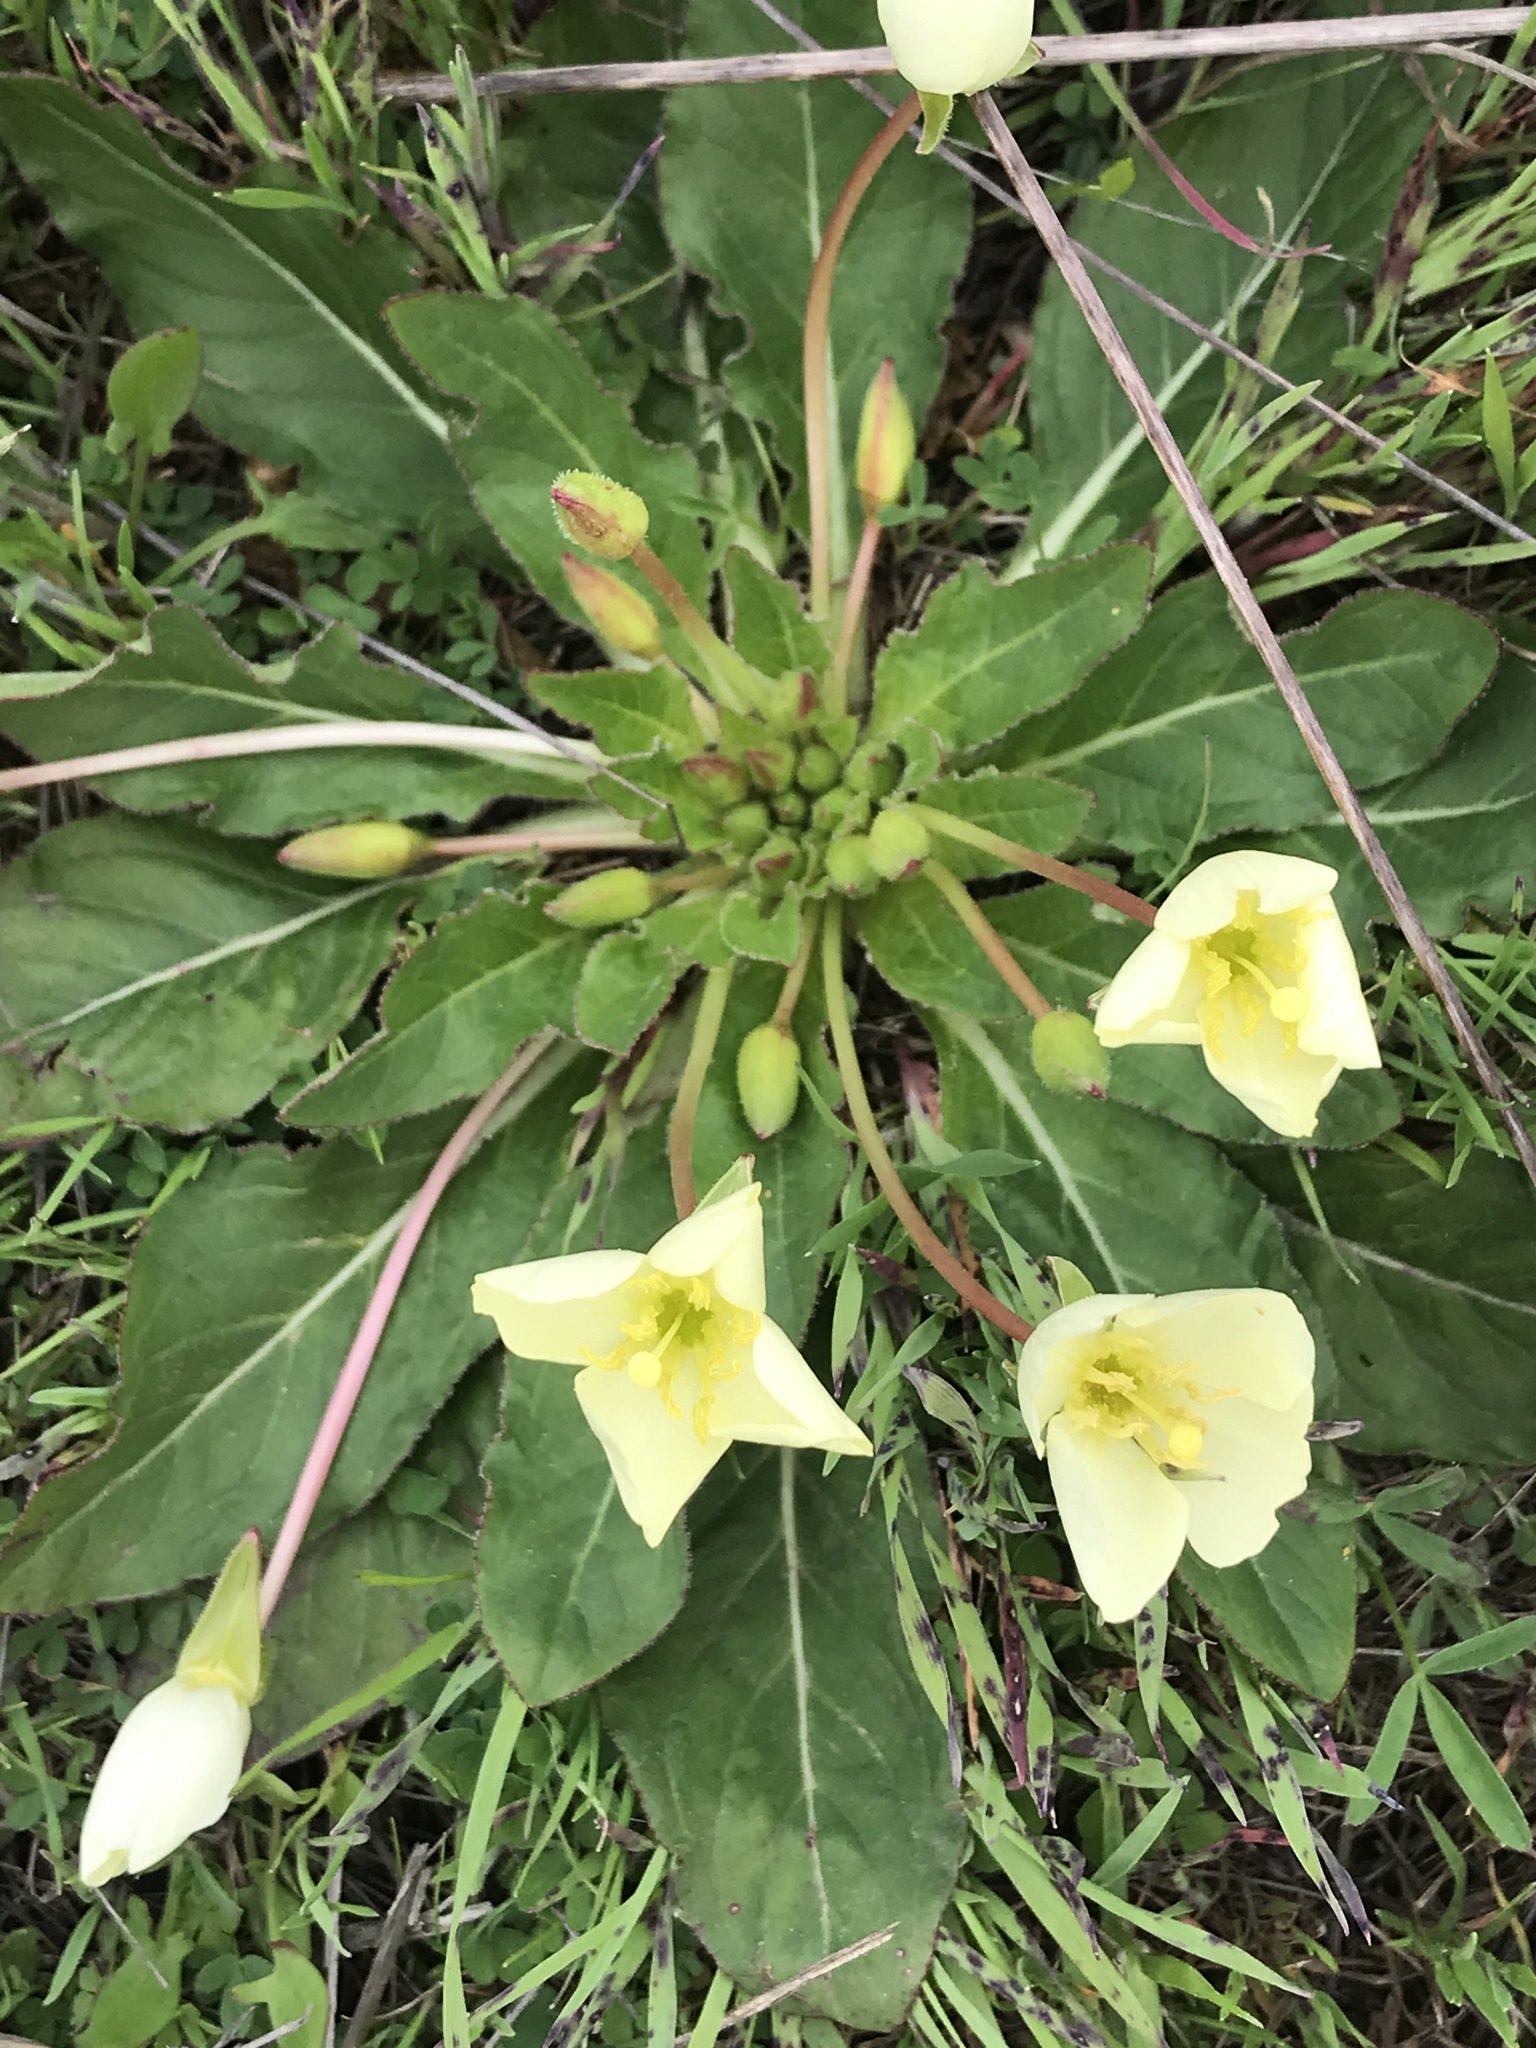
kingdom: Plantae
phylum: Tracheophyta
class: Magnoliopsida
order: Myrtales
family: Onagraceae
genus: Taraxia
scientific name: Taraxia ovata
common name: Goldeneggs
